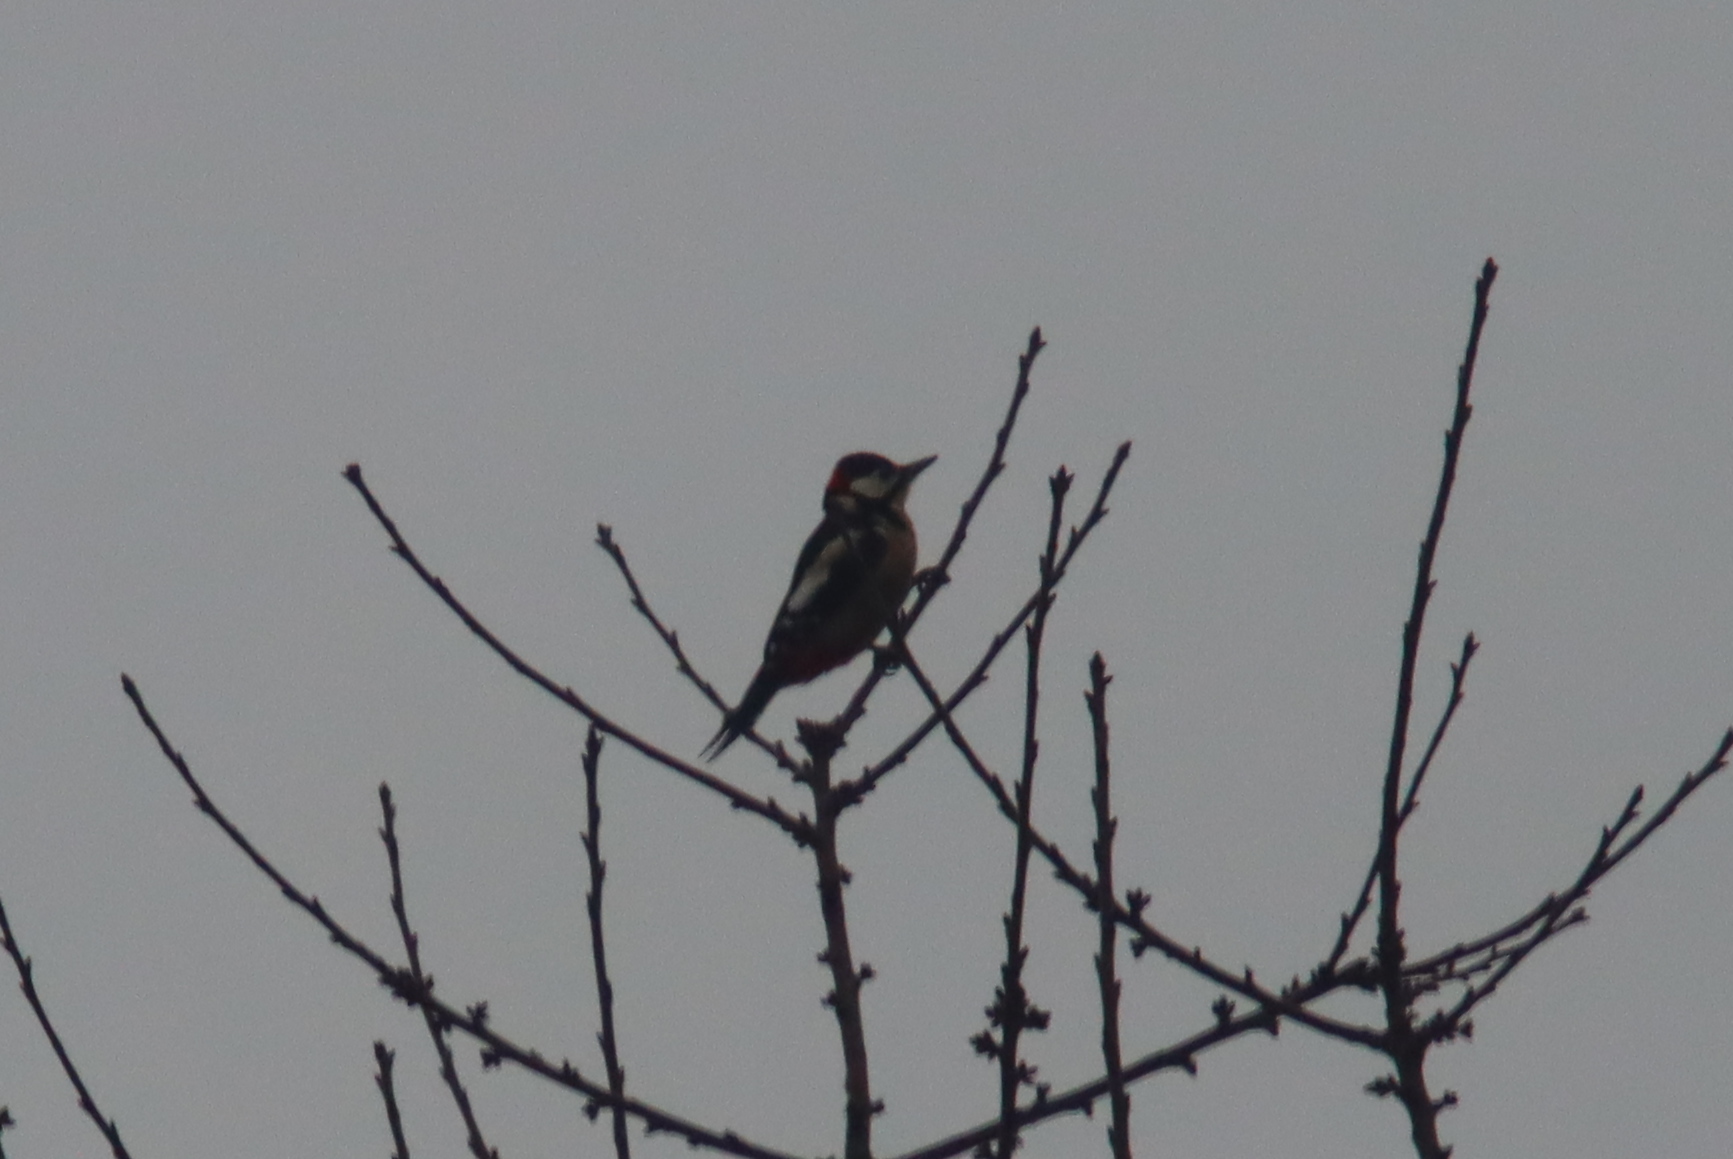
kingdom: Animalia
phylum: Chordata
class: Aves
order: Piciformes
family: Picidae
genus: Dendrocopos
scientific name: Dendrocopos major
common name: Great spotted woodpecker
